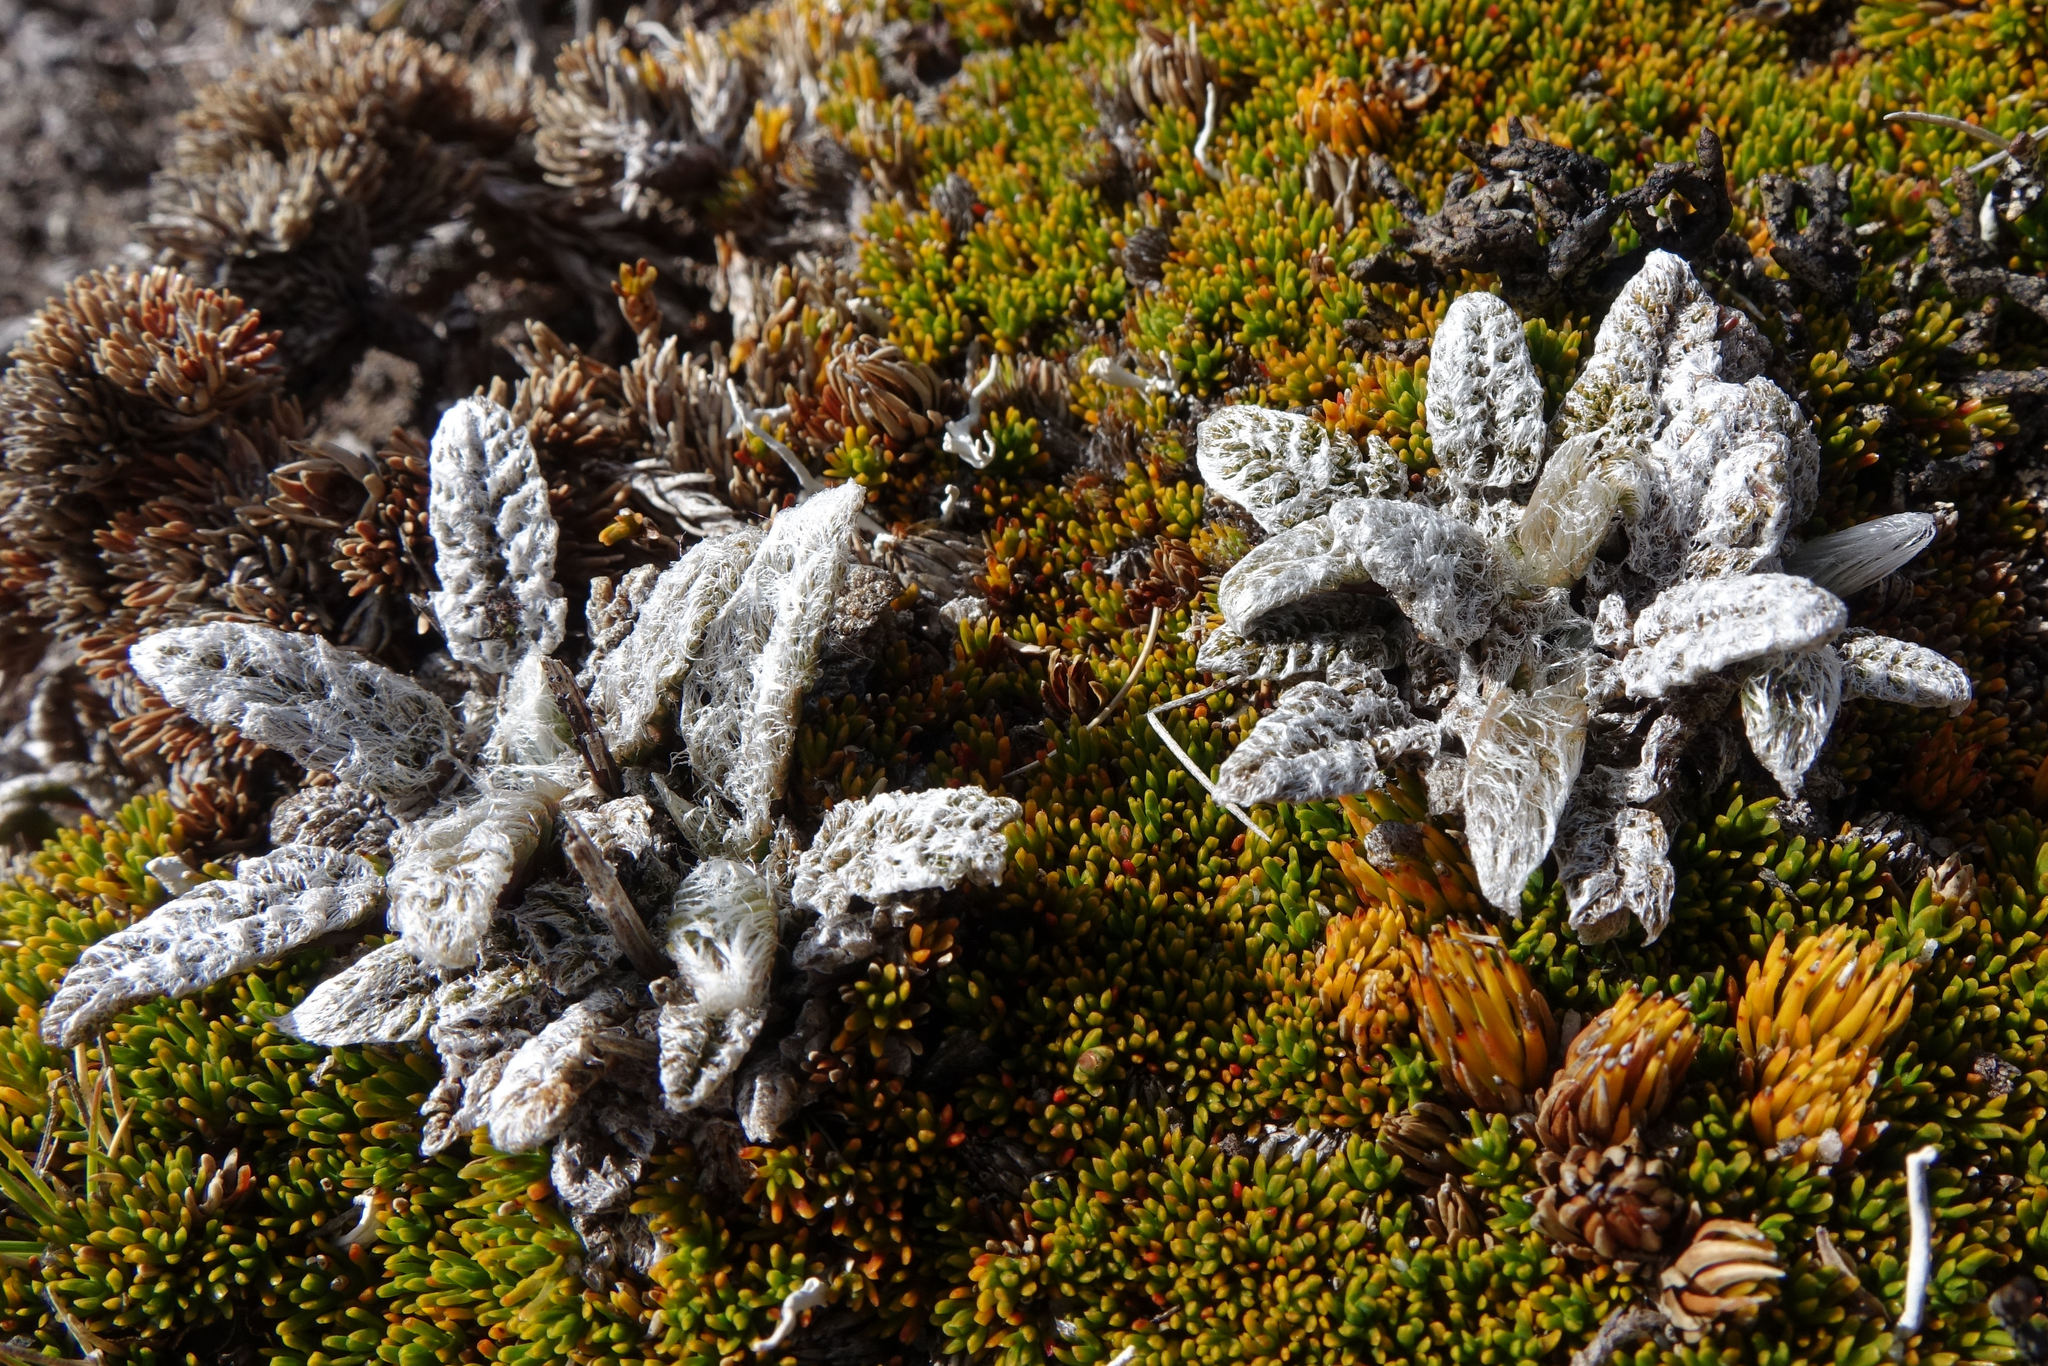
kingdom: Plantae
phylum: Tracheophyta
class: Magnoliopsida
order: Apiales
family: Apiaceae
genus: Anisotome
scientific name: Anisotome lanuginosa
